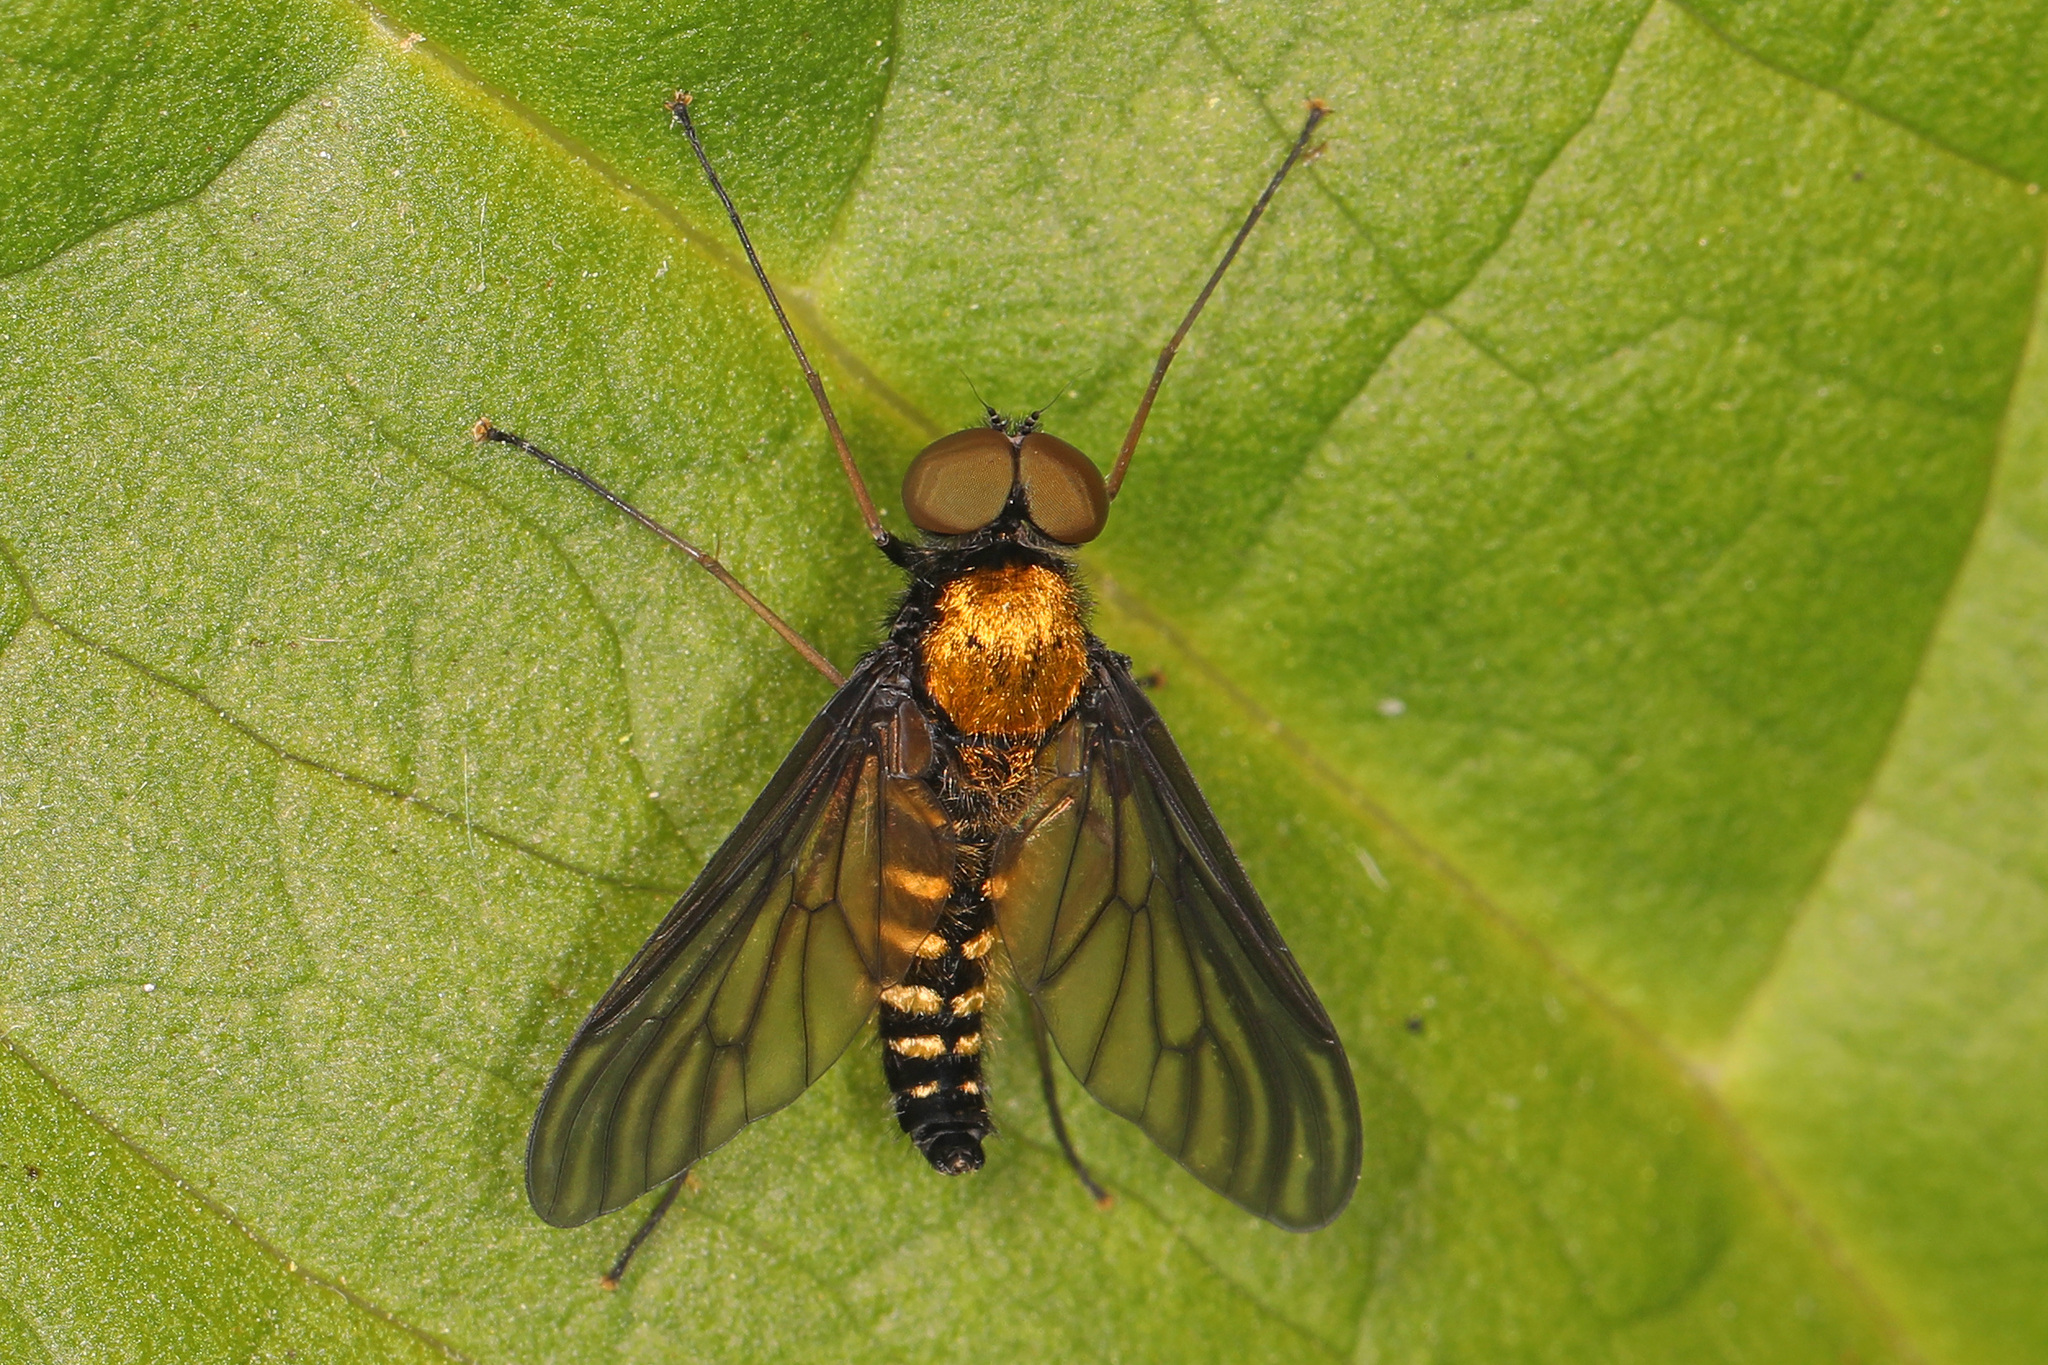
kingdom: Animalia
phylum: Arthropoda
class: Insecta
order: Diptera
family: Rhagionidae
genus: Chrysopilus
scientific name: Chrysopilus thoracicus
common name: Golden-backed snipe fly
